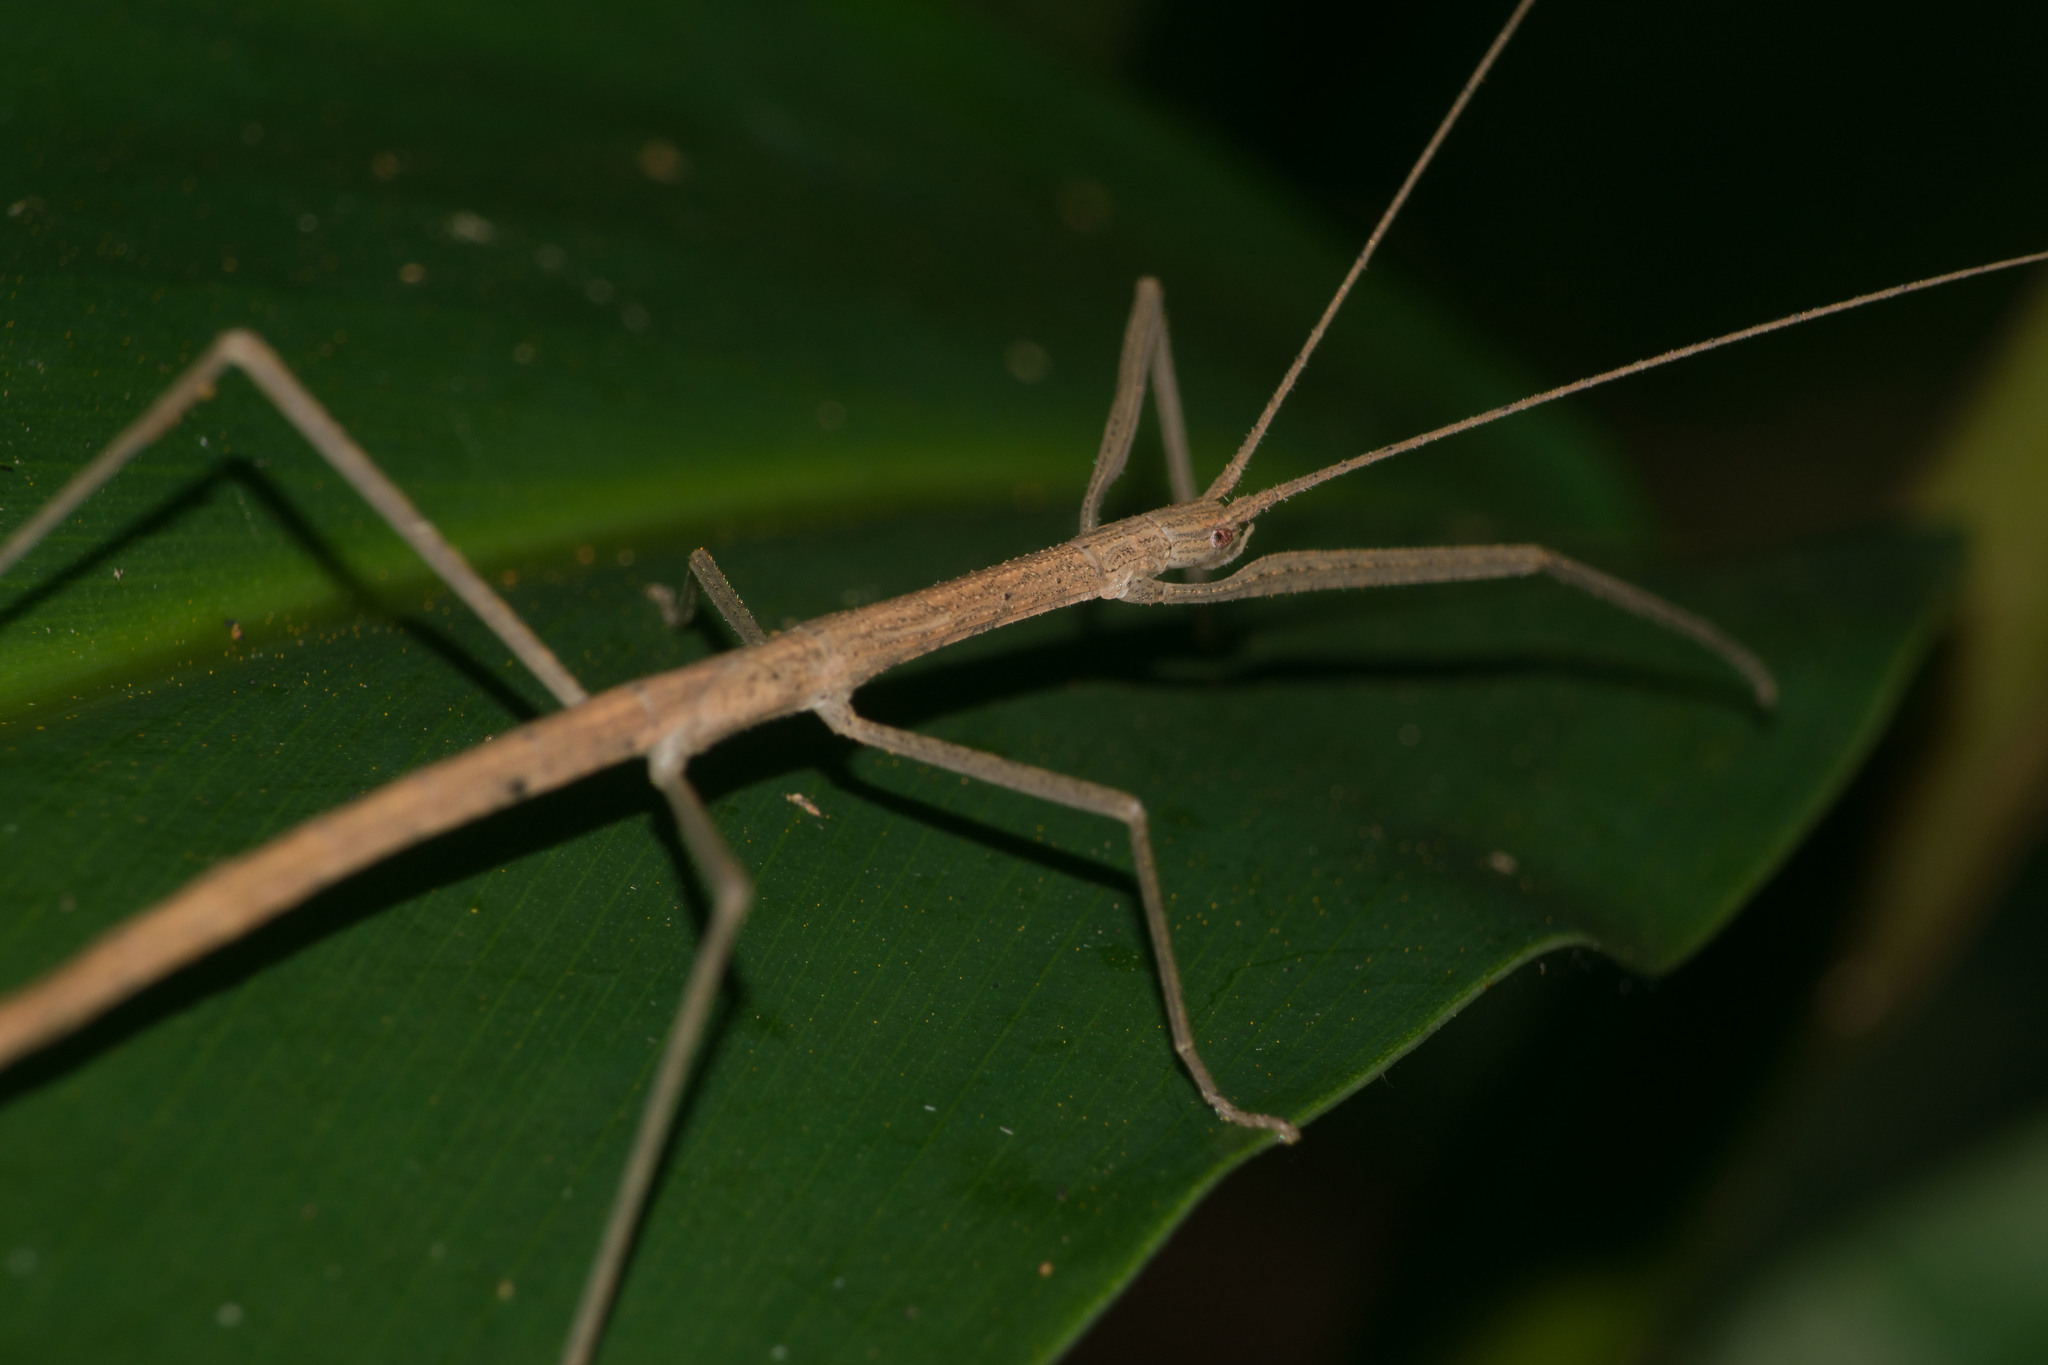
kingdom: Animalia
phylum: Arthropoda
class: Insecta
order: Phasmida
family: Lonchodidae
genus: Sipyloidea
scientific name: Sipyloidea sipylus
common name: Madagascan stick insect
